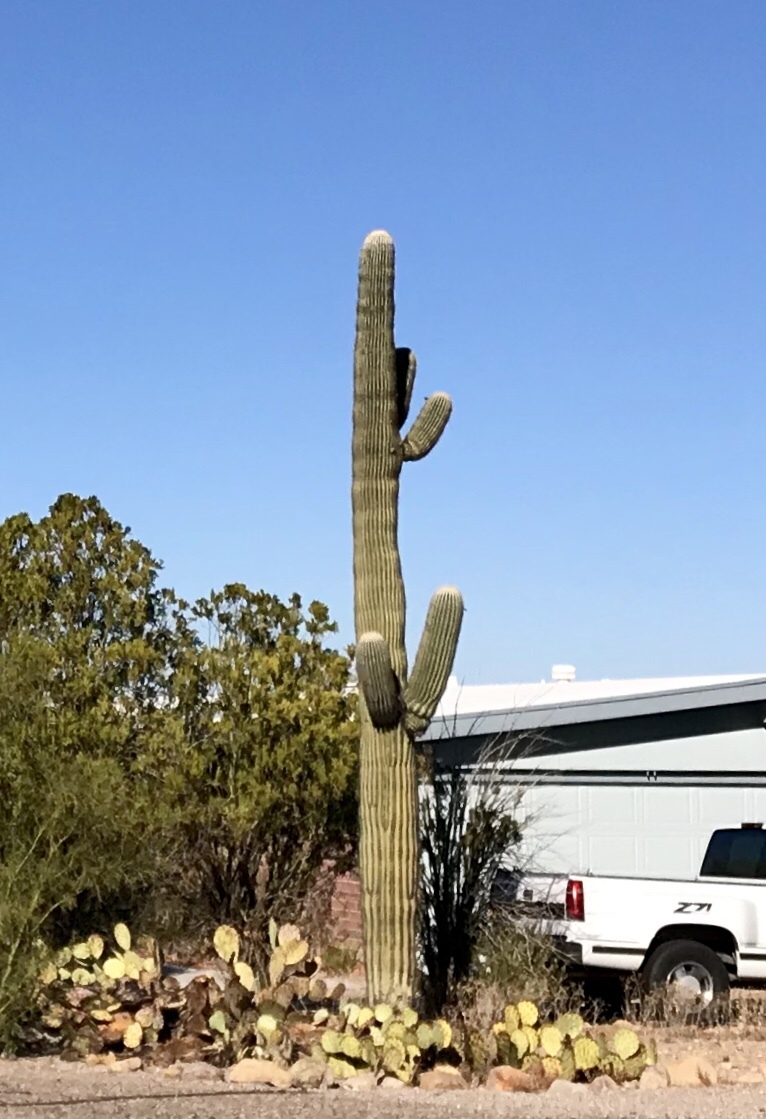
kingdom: Plantae
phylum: Tracheophyta
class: Magnoliopsida
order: Caryophyllales
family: Cactaceae
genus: Carnegiea
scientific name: Carnegiea gigantea
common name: Saguaro
